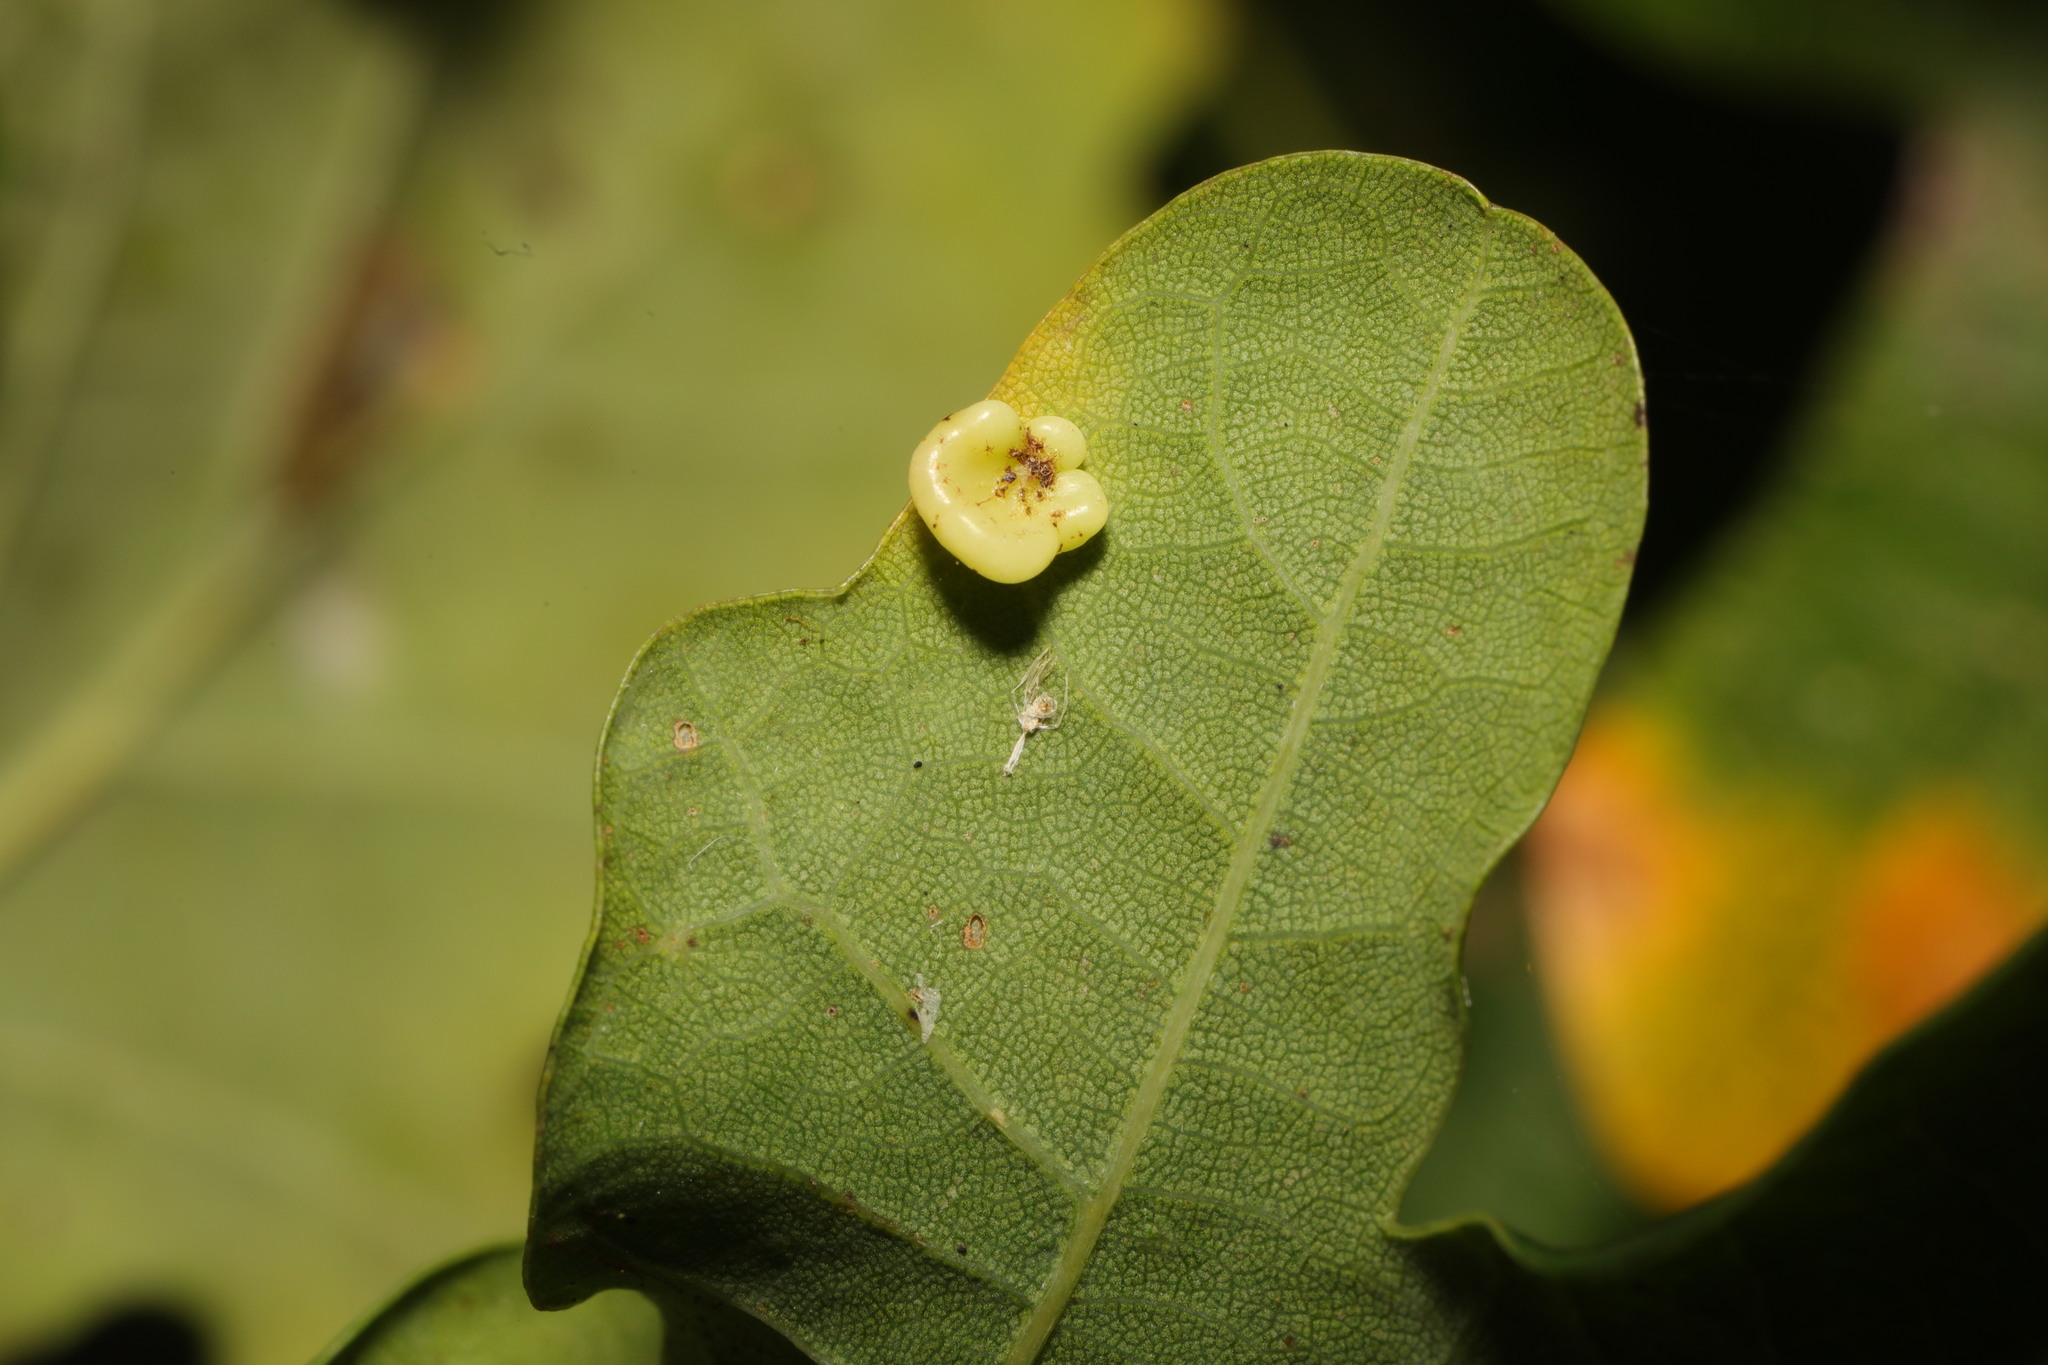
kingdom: Animalia
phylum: Arthropoda
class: Insecta
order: Hymenoptera
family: Cynipidae
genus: Neuroterus
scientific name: Neuroterus albipes
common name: Smooth spangle gall
